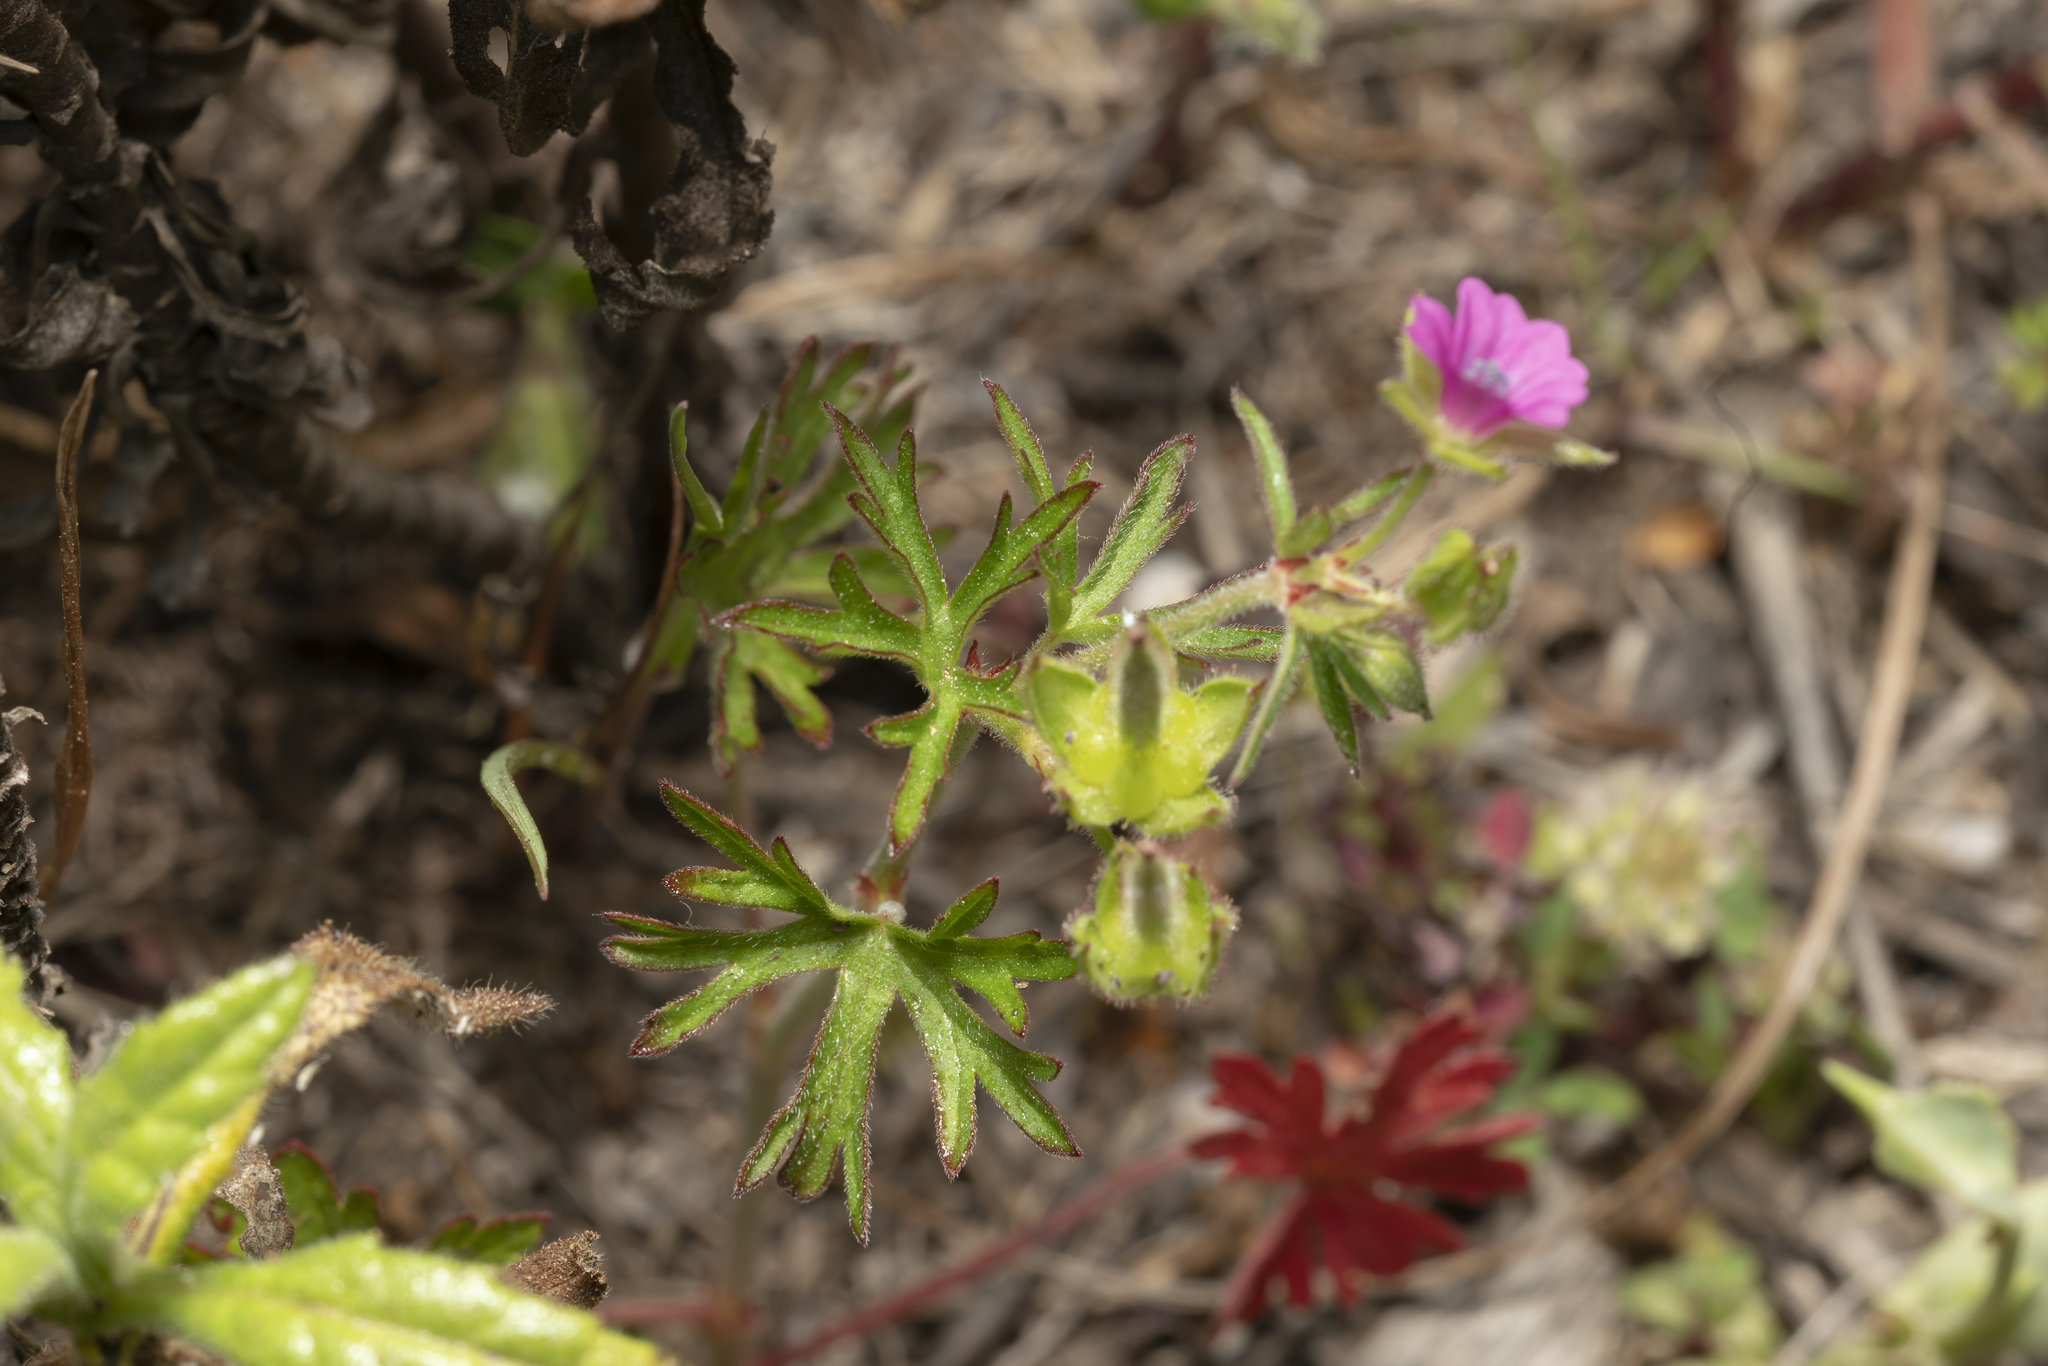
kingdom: Plantae
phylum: Tracheophyta
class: Magnoliopsida
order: Geraniales
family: Geraniaceae
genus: Geranium
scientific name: Geranium dissectum
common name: Cut-leaved crane's-bill
